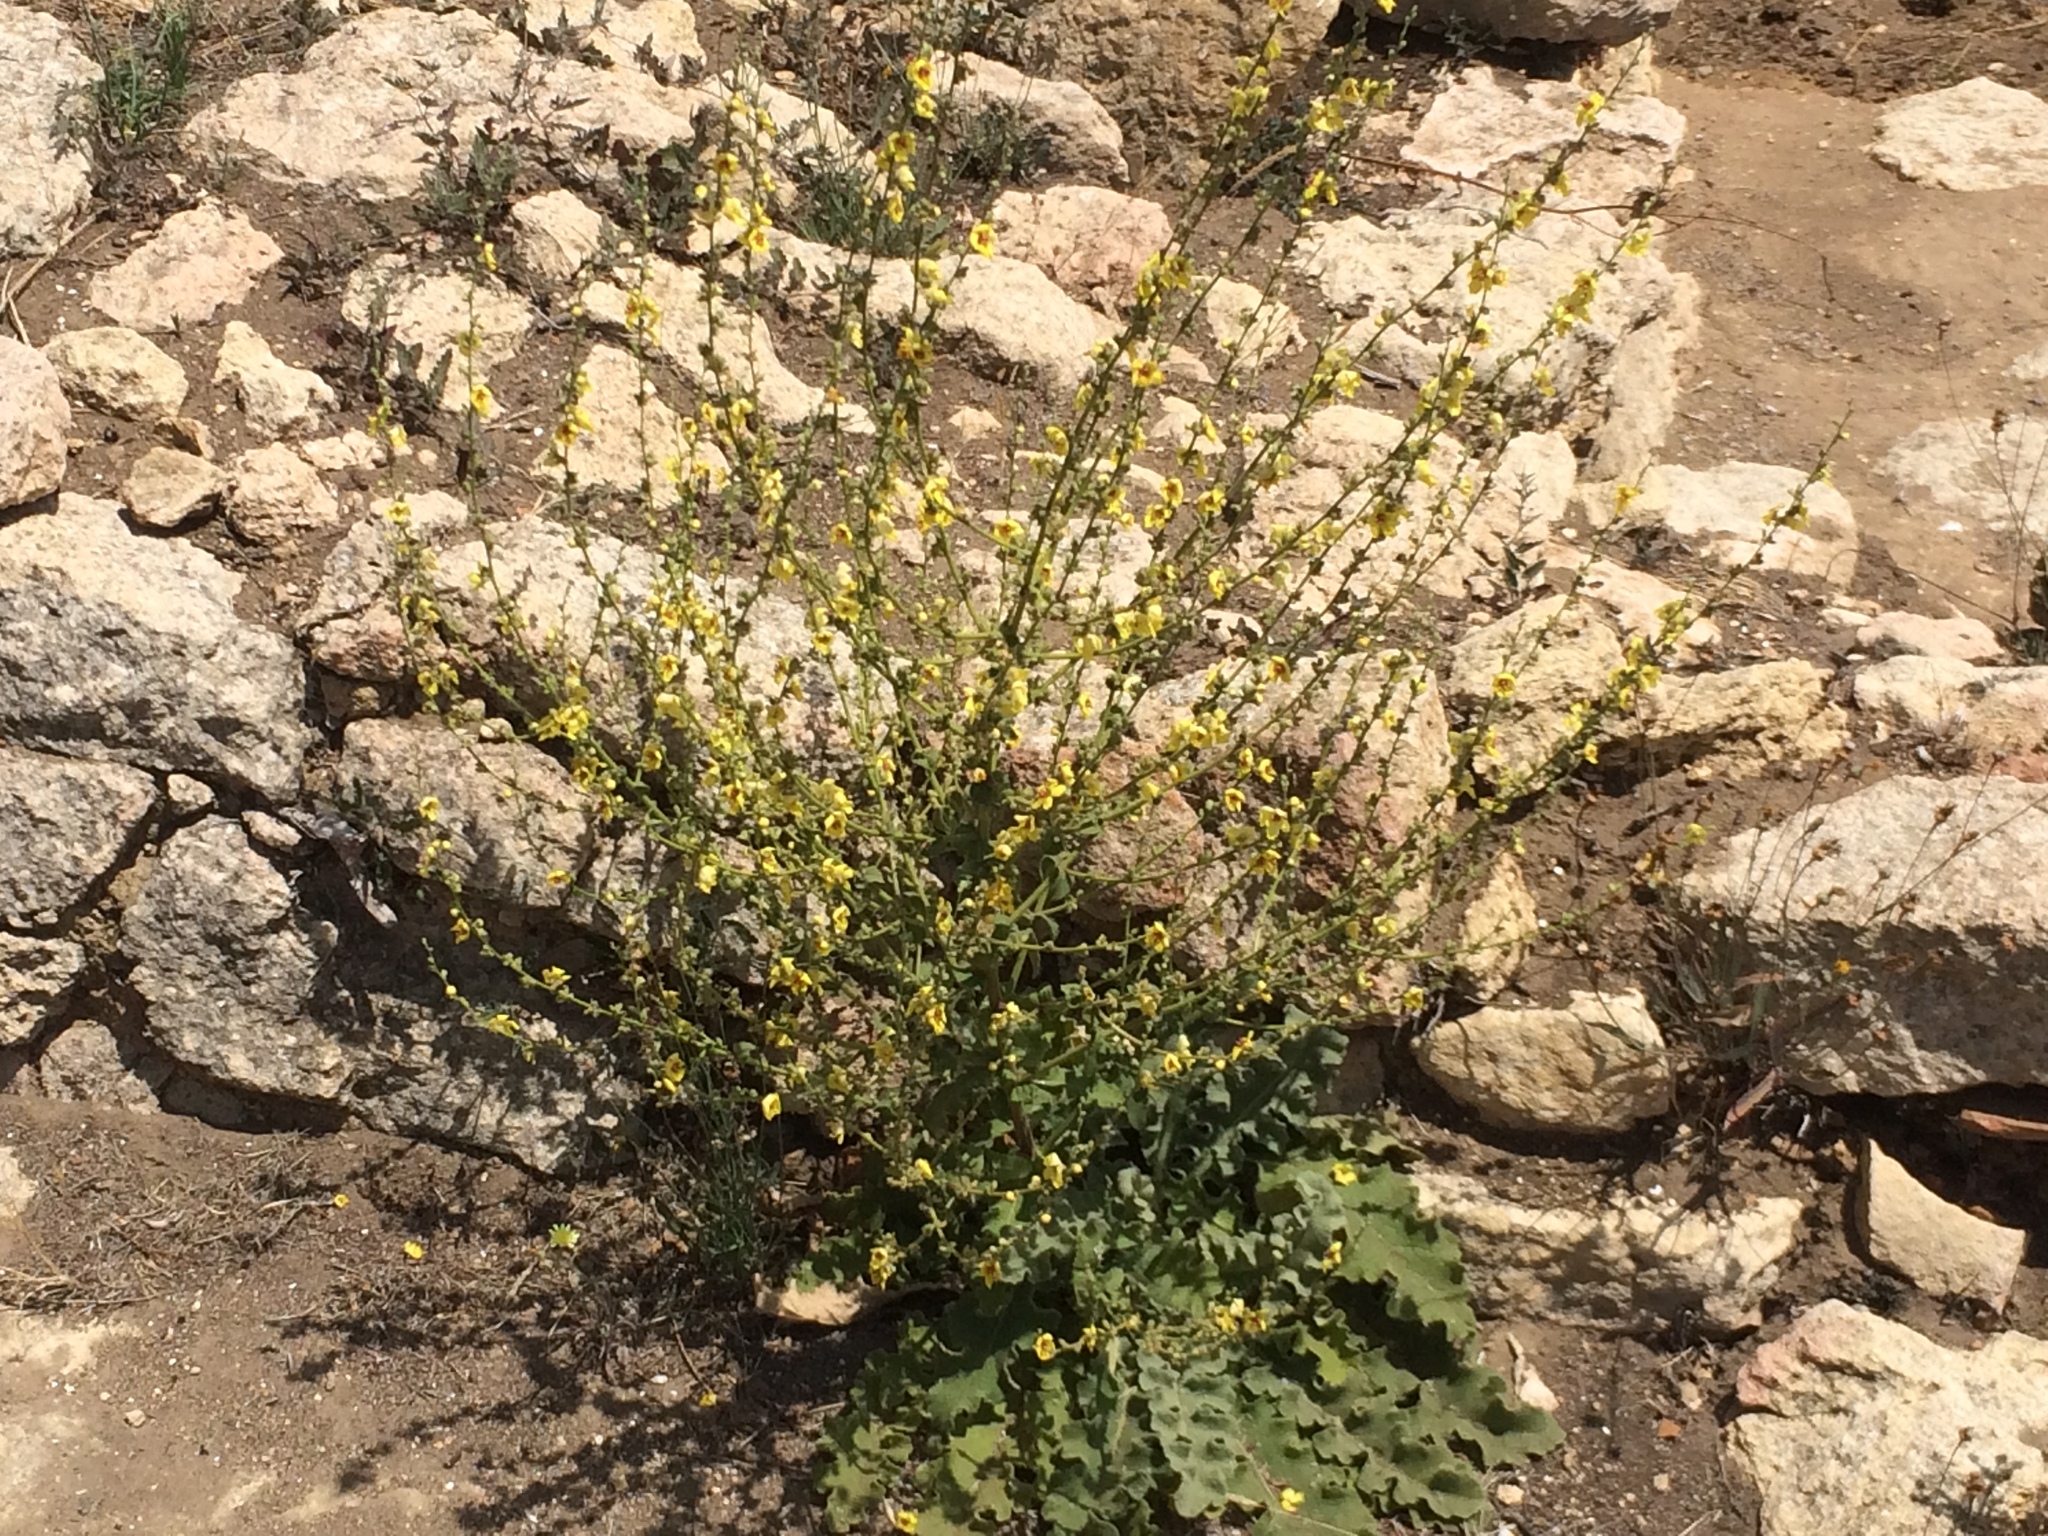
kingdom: Plantae
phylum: Tracheophyta
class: Magnoliopsida
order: Lamiales
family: Scrophulariaceae
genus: Verbascum
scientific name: Verbascum sinuatum
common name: Wavyleaf mullein
